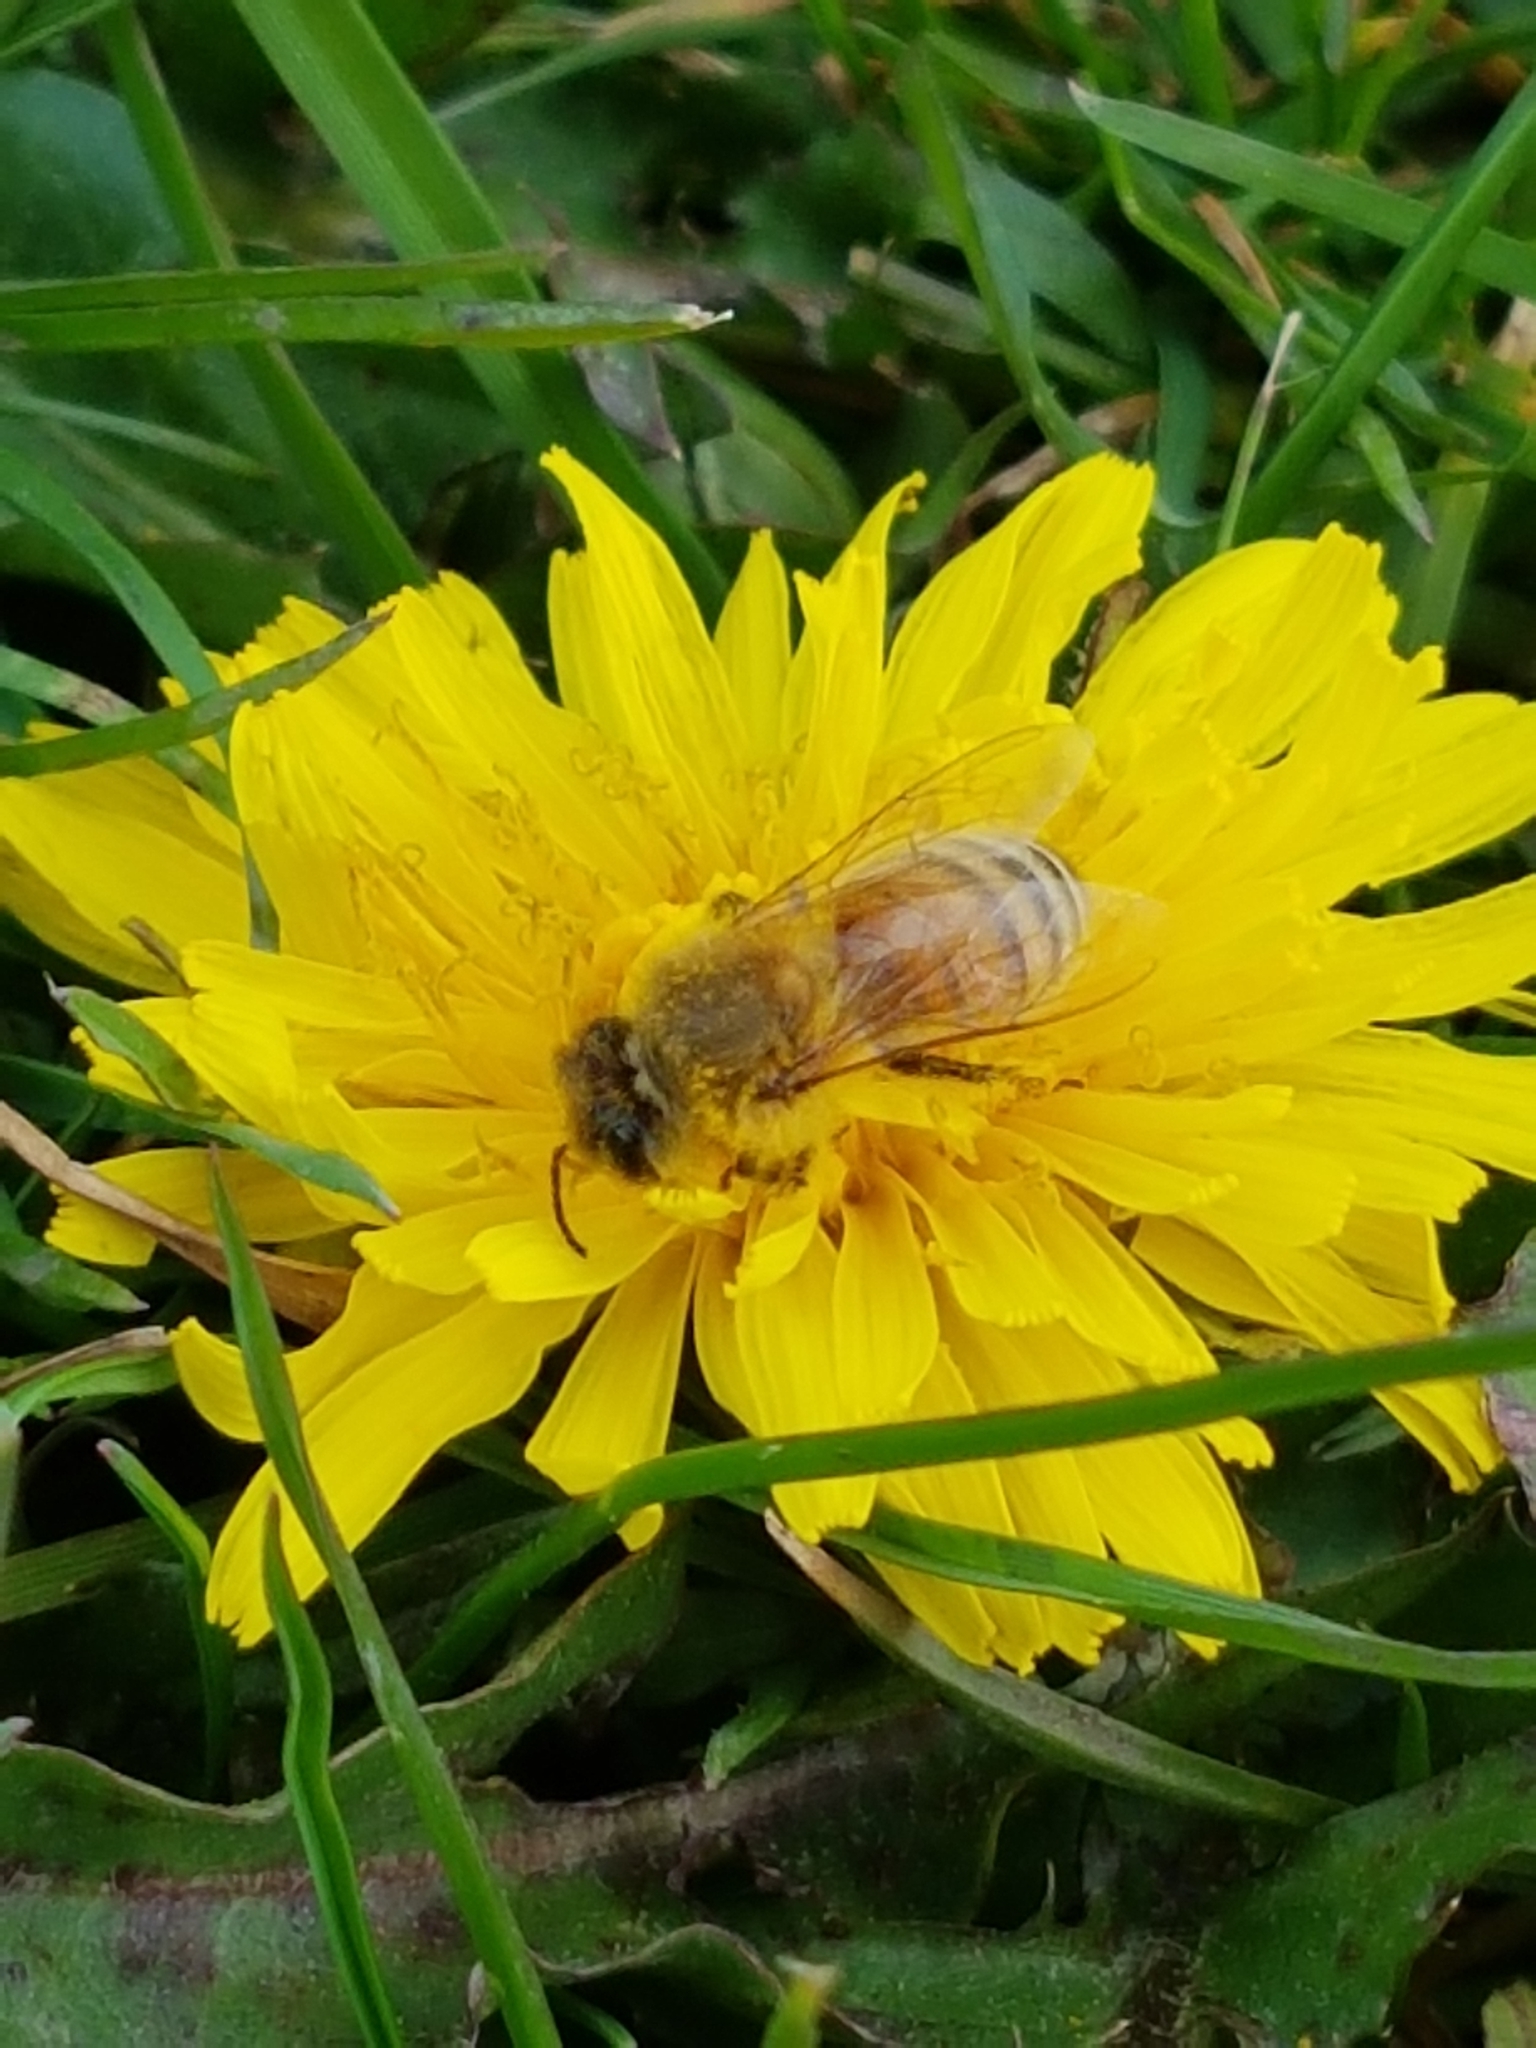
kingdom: Animalia
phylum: Arthropoda
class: Insecta
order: Hymenoptera
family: Apidae
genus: Apis
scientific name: Apis mellifera
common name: Honey bee
